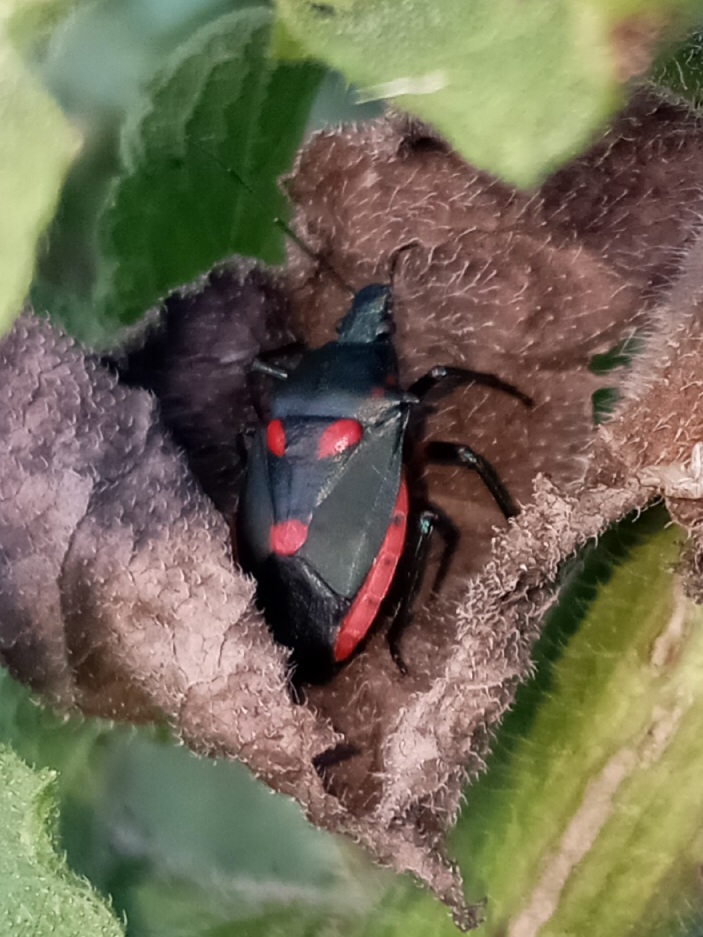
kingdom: Animalia
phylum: Arthropoda
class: Insecta
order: Hemiptera
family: Pentatomidae
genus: Euthyrhynchus
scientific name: Euthyrhynchus floridanus
